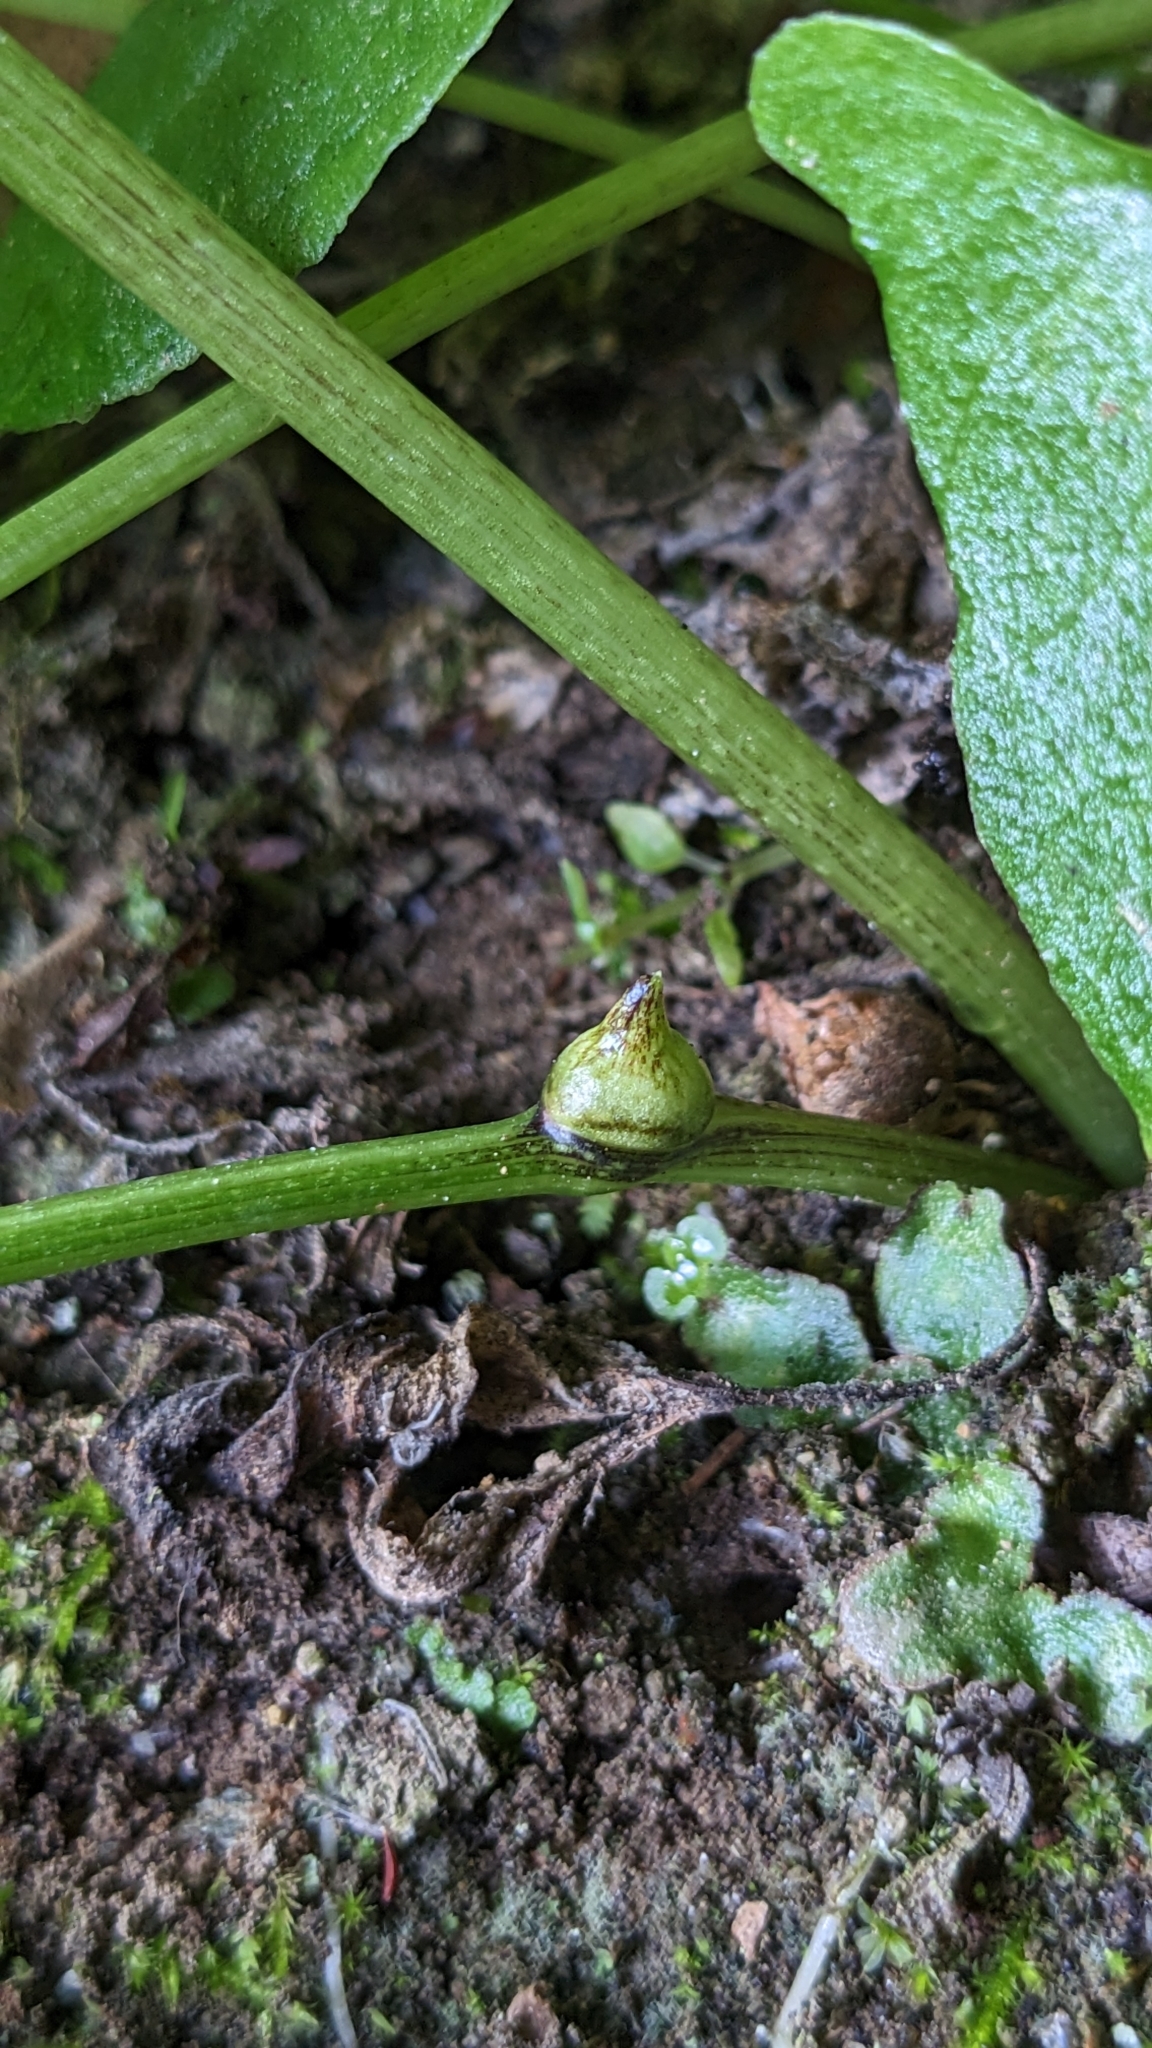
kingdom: Plantae
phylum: Tracheophyta
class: Liliopsida
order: Alismatales
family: Araceae
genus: Pinellia
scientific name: Pinellia ternata
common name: Pinellia
